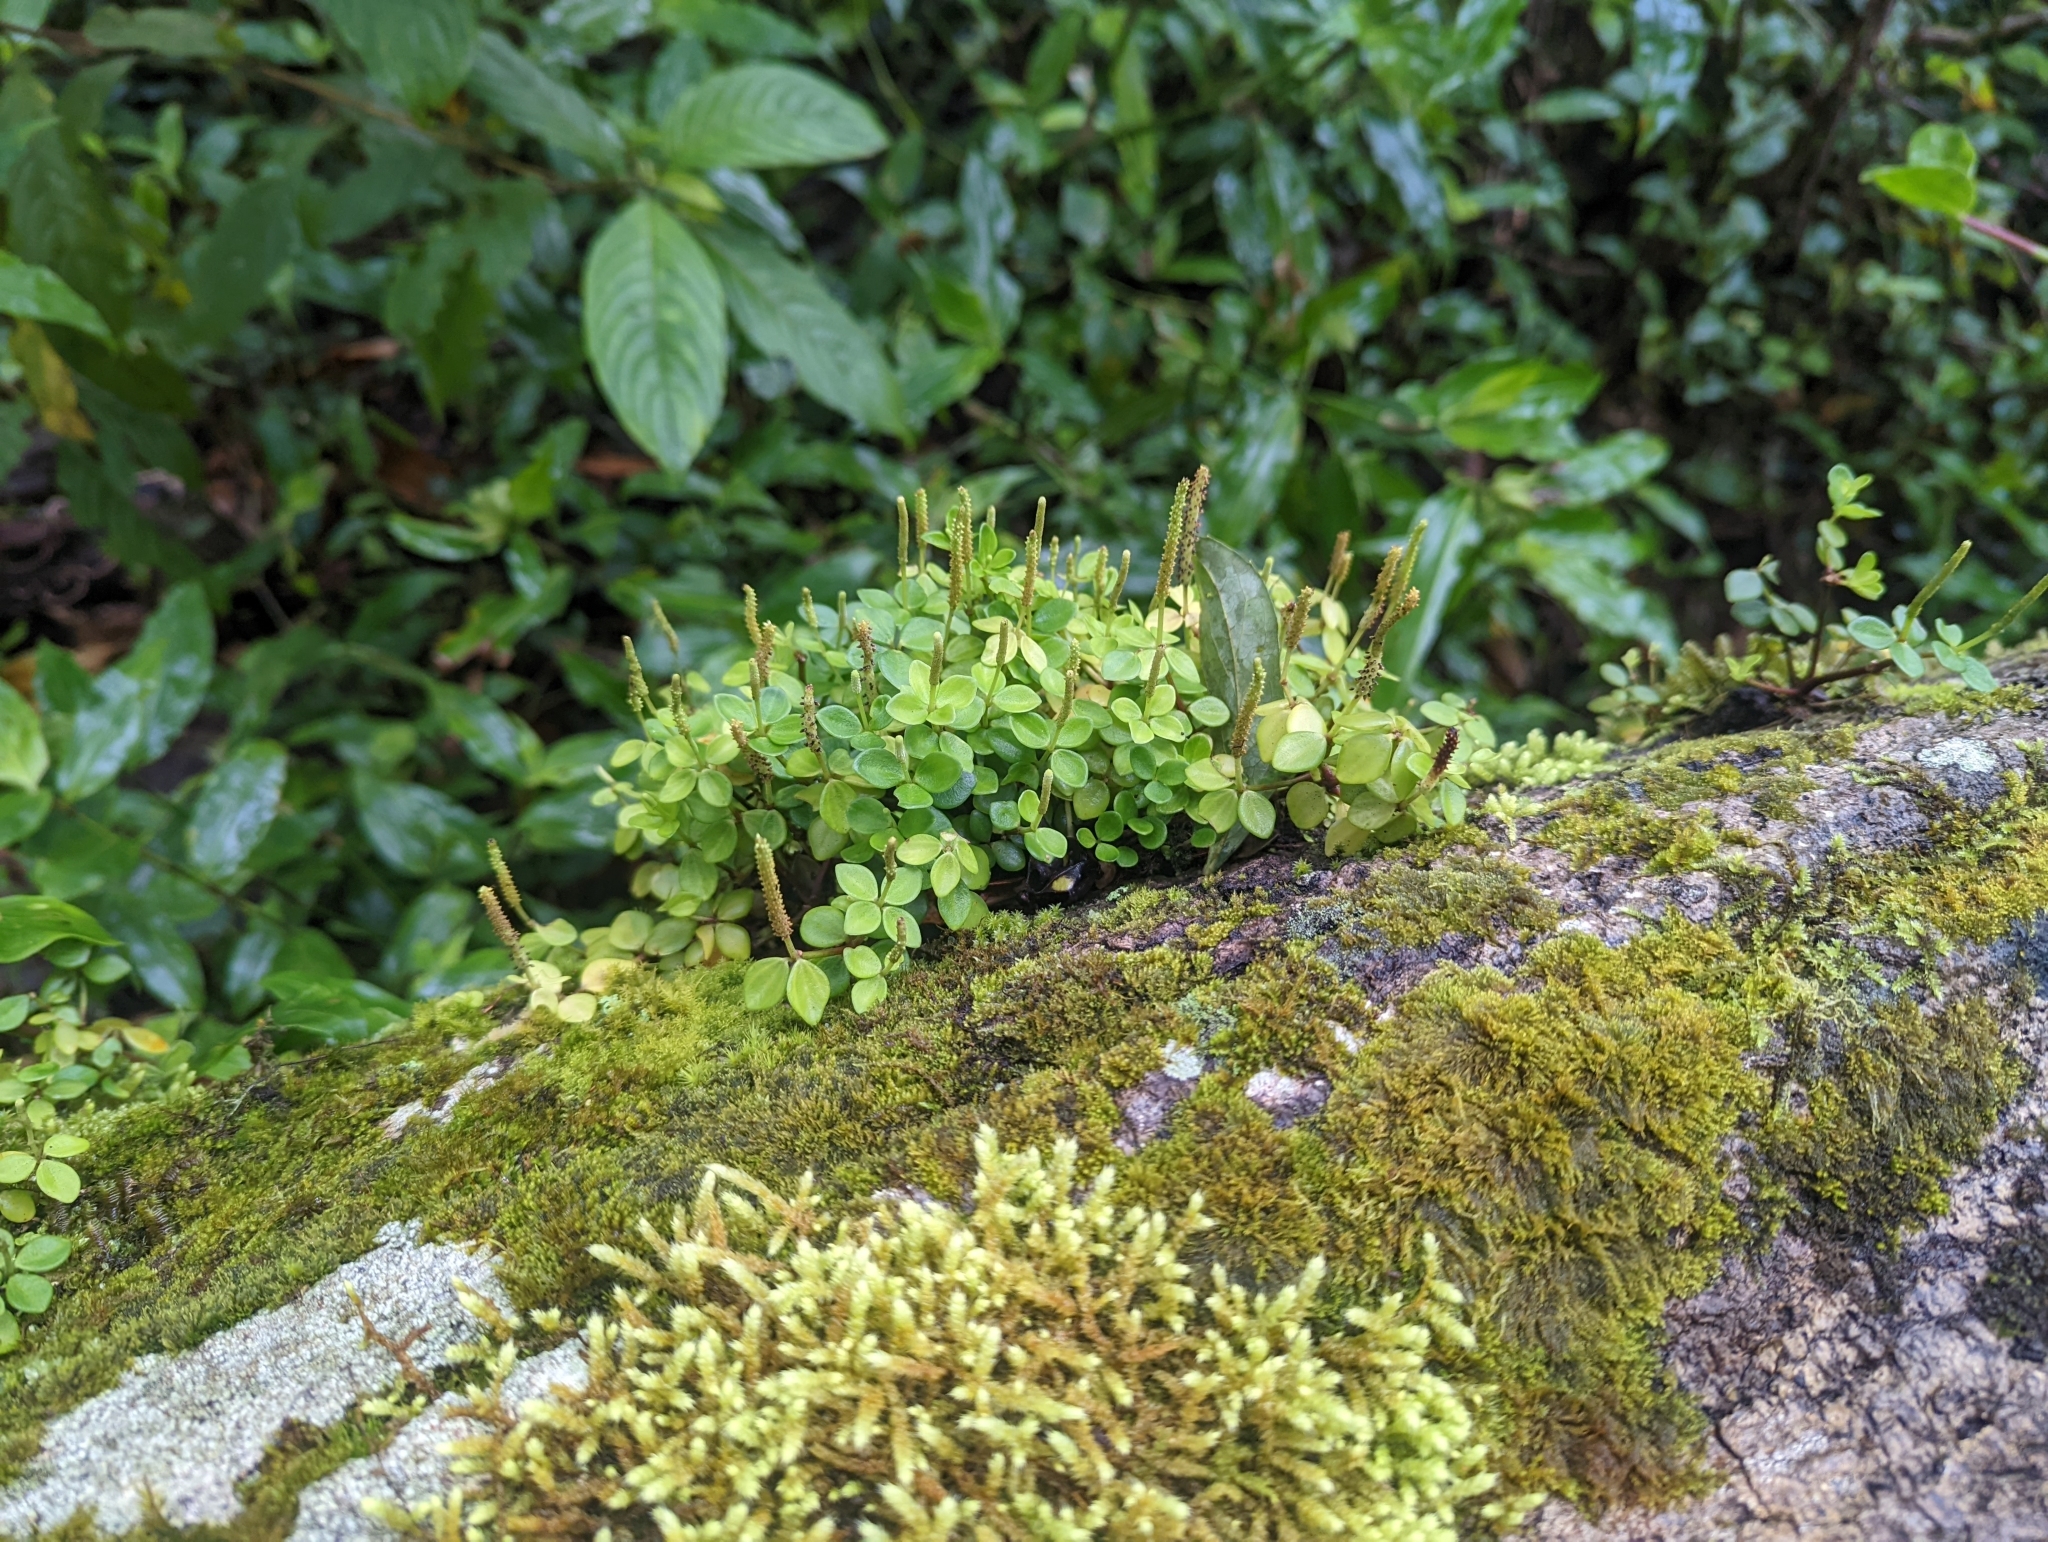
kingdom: Plantae
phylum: Tracheophyta
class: Magnoliopsida
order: Piperales
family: Piperaceae
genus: Peperomia
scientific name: Peperomia tetraphylla
